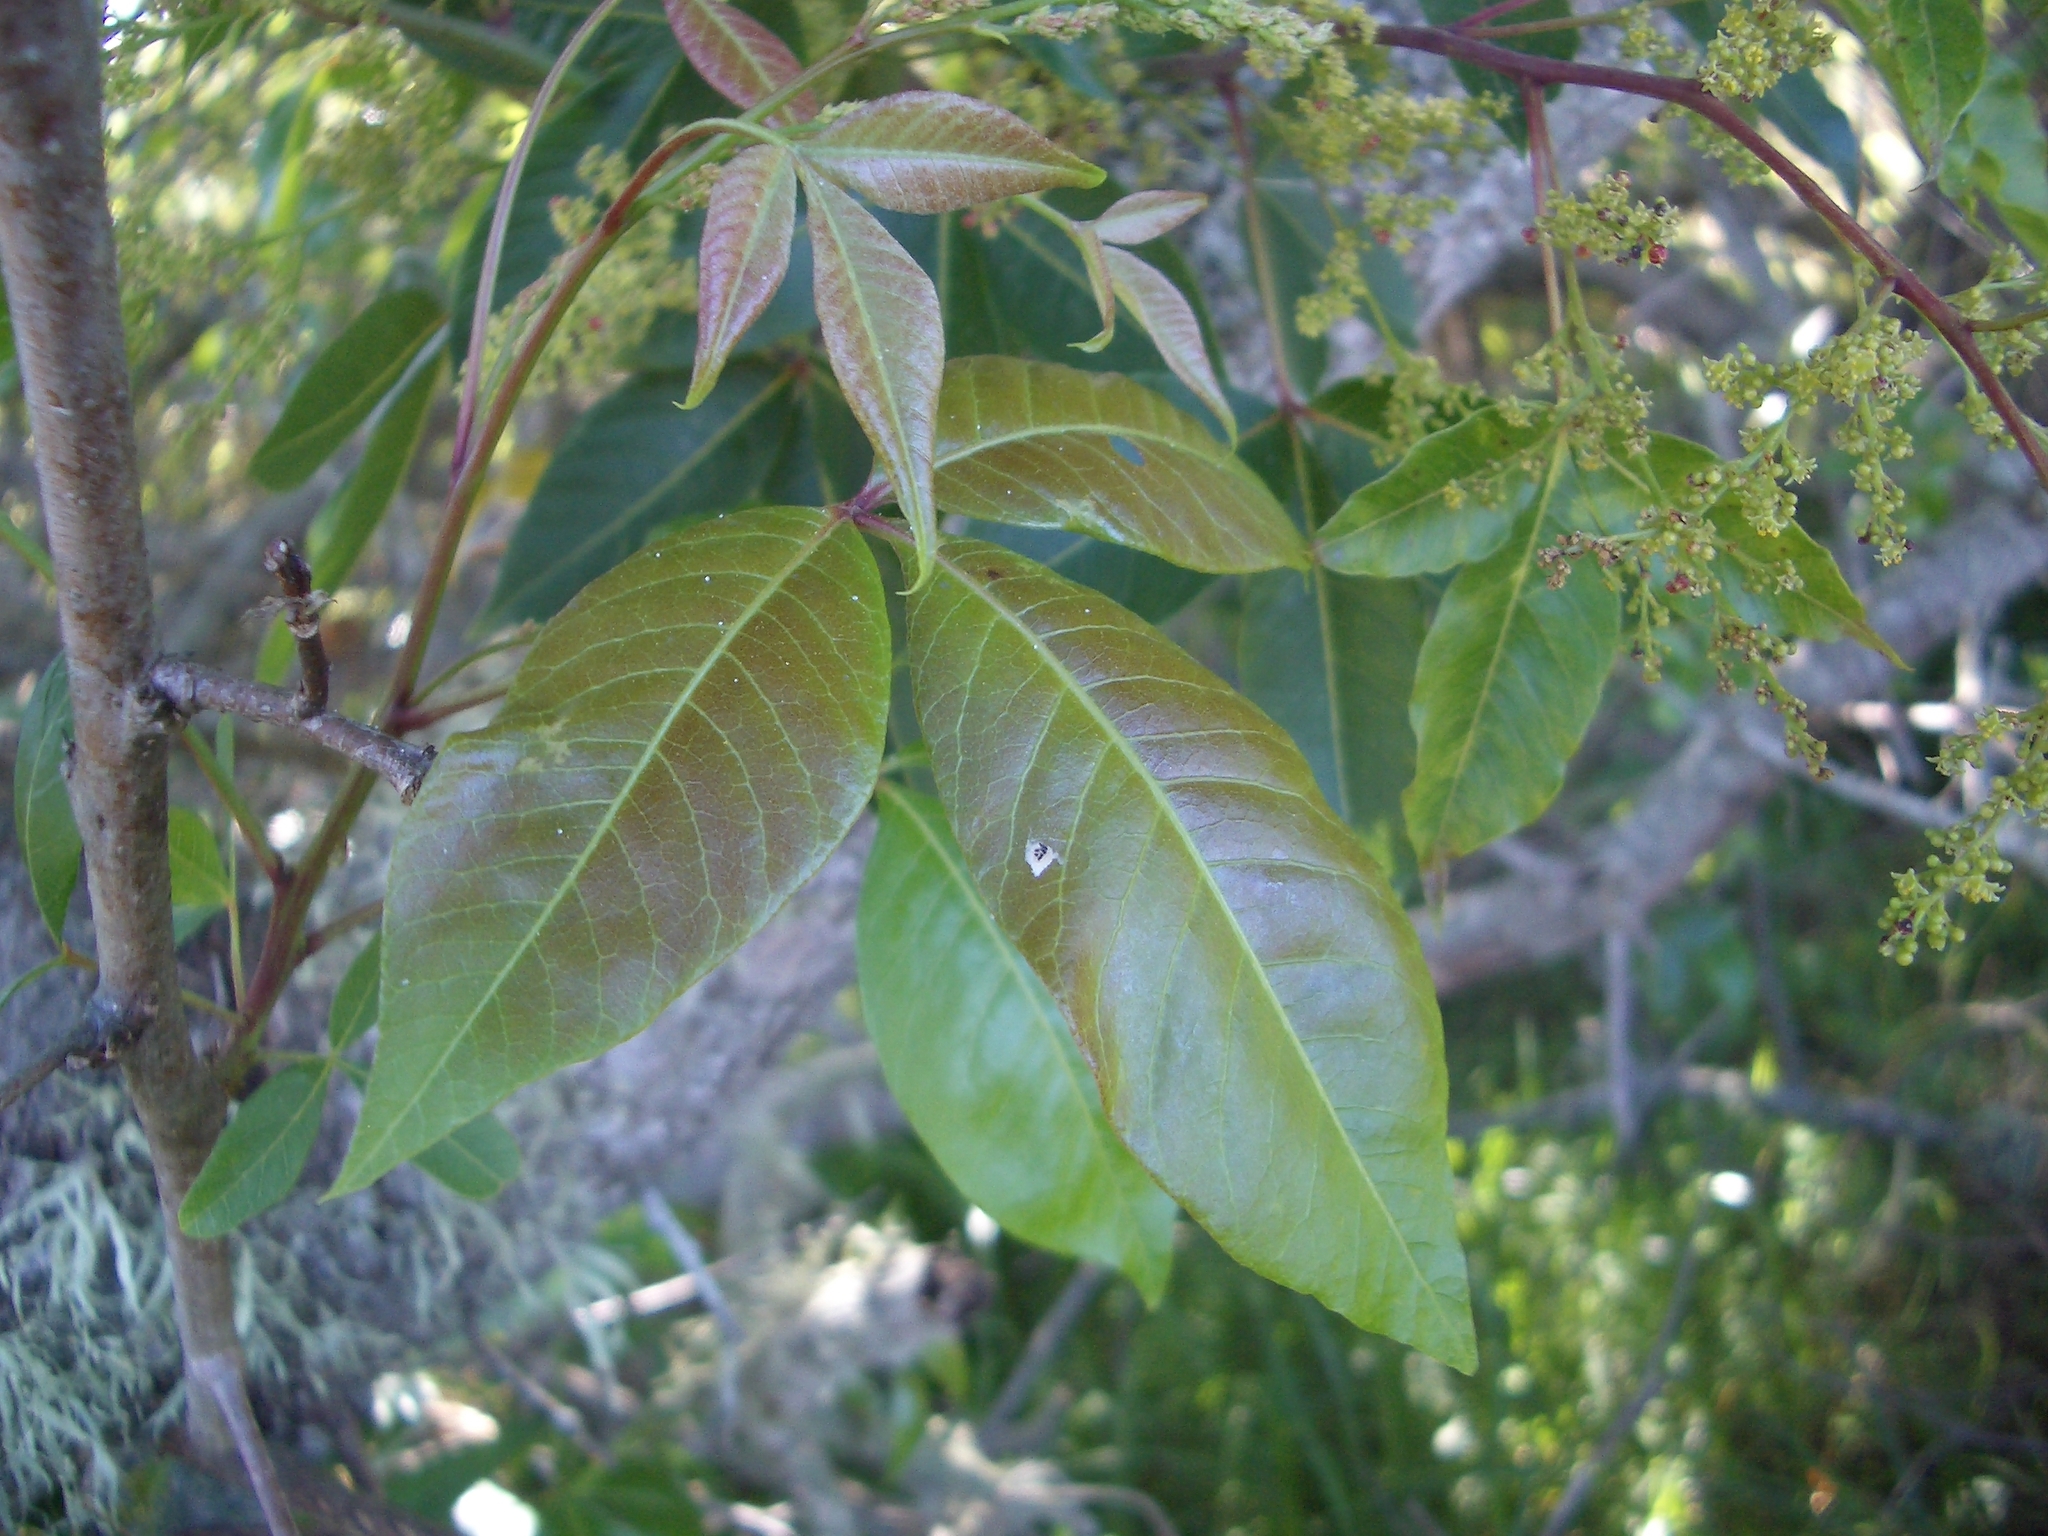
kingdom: Plantae
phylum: Tracheophyta
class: Magnoliopsida
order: Sapindales
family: Anacardiaceae
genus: Searsia
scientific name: Searsia chirindensis
